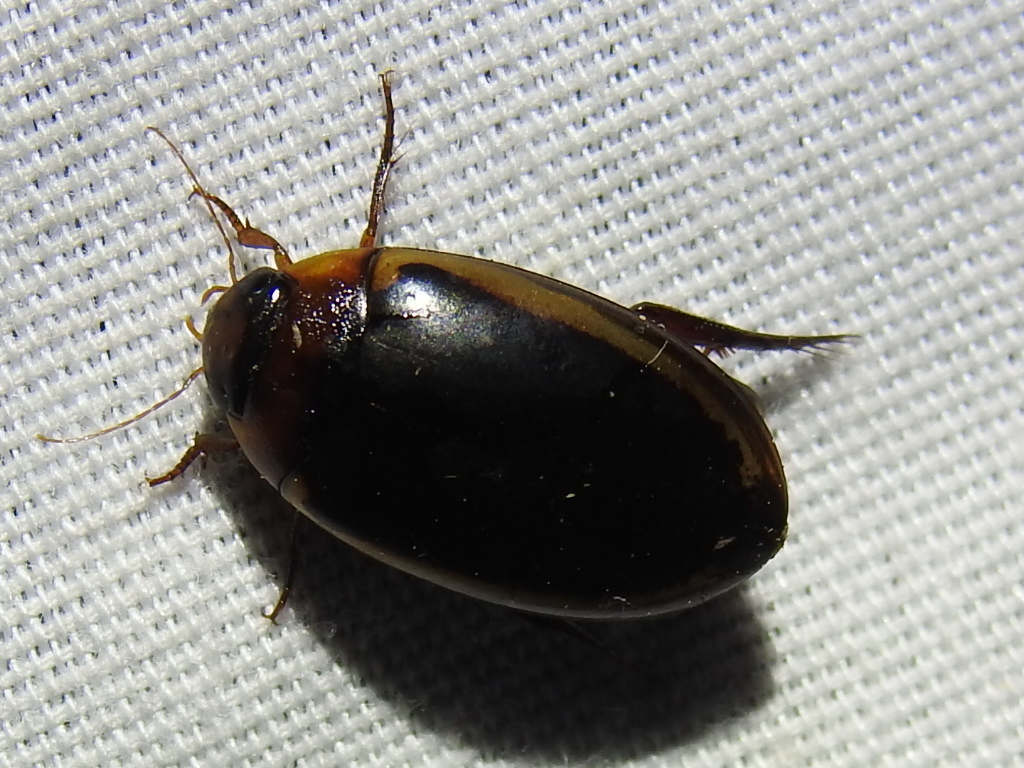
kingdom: Animalia
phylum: Arthropoda
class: Insecta
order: Coleoptera
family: Dytiscidae
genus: Hydaticus
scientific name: Hydaticus bimarginatus
